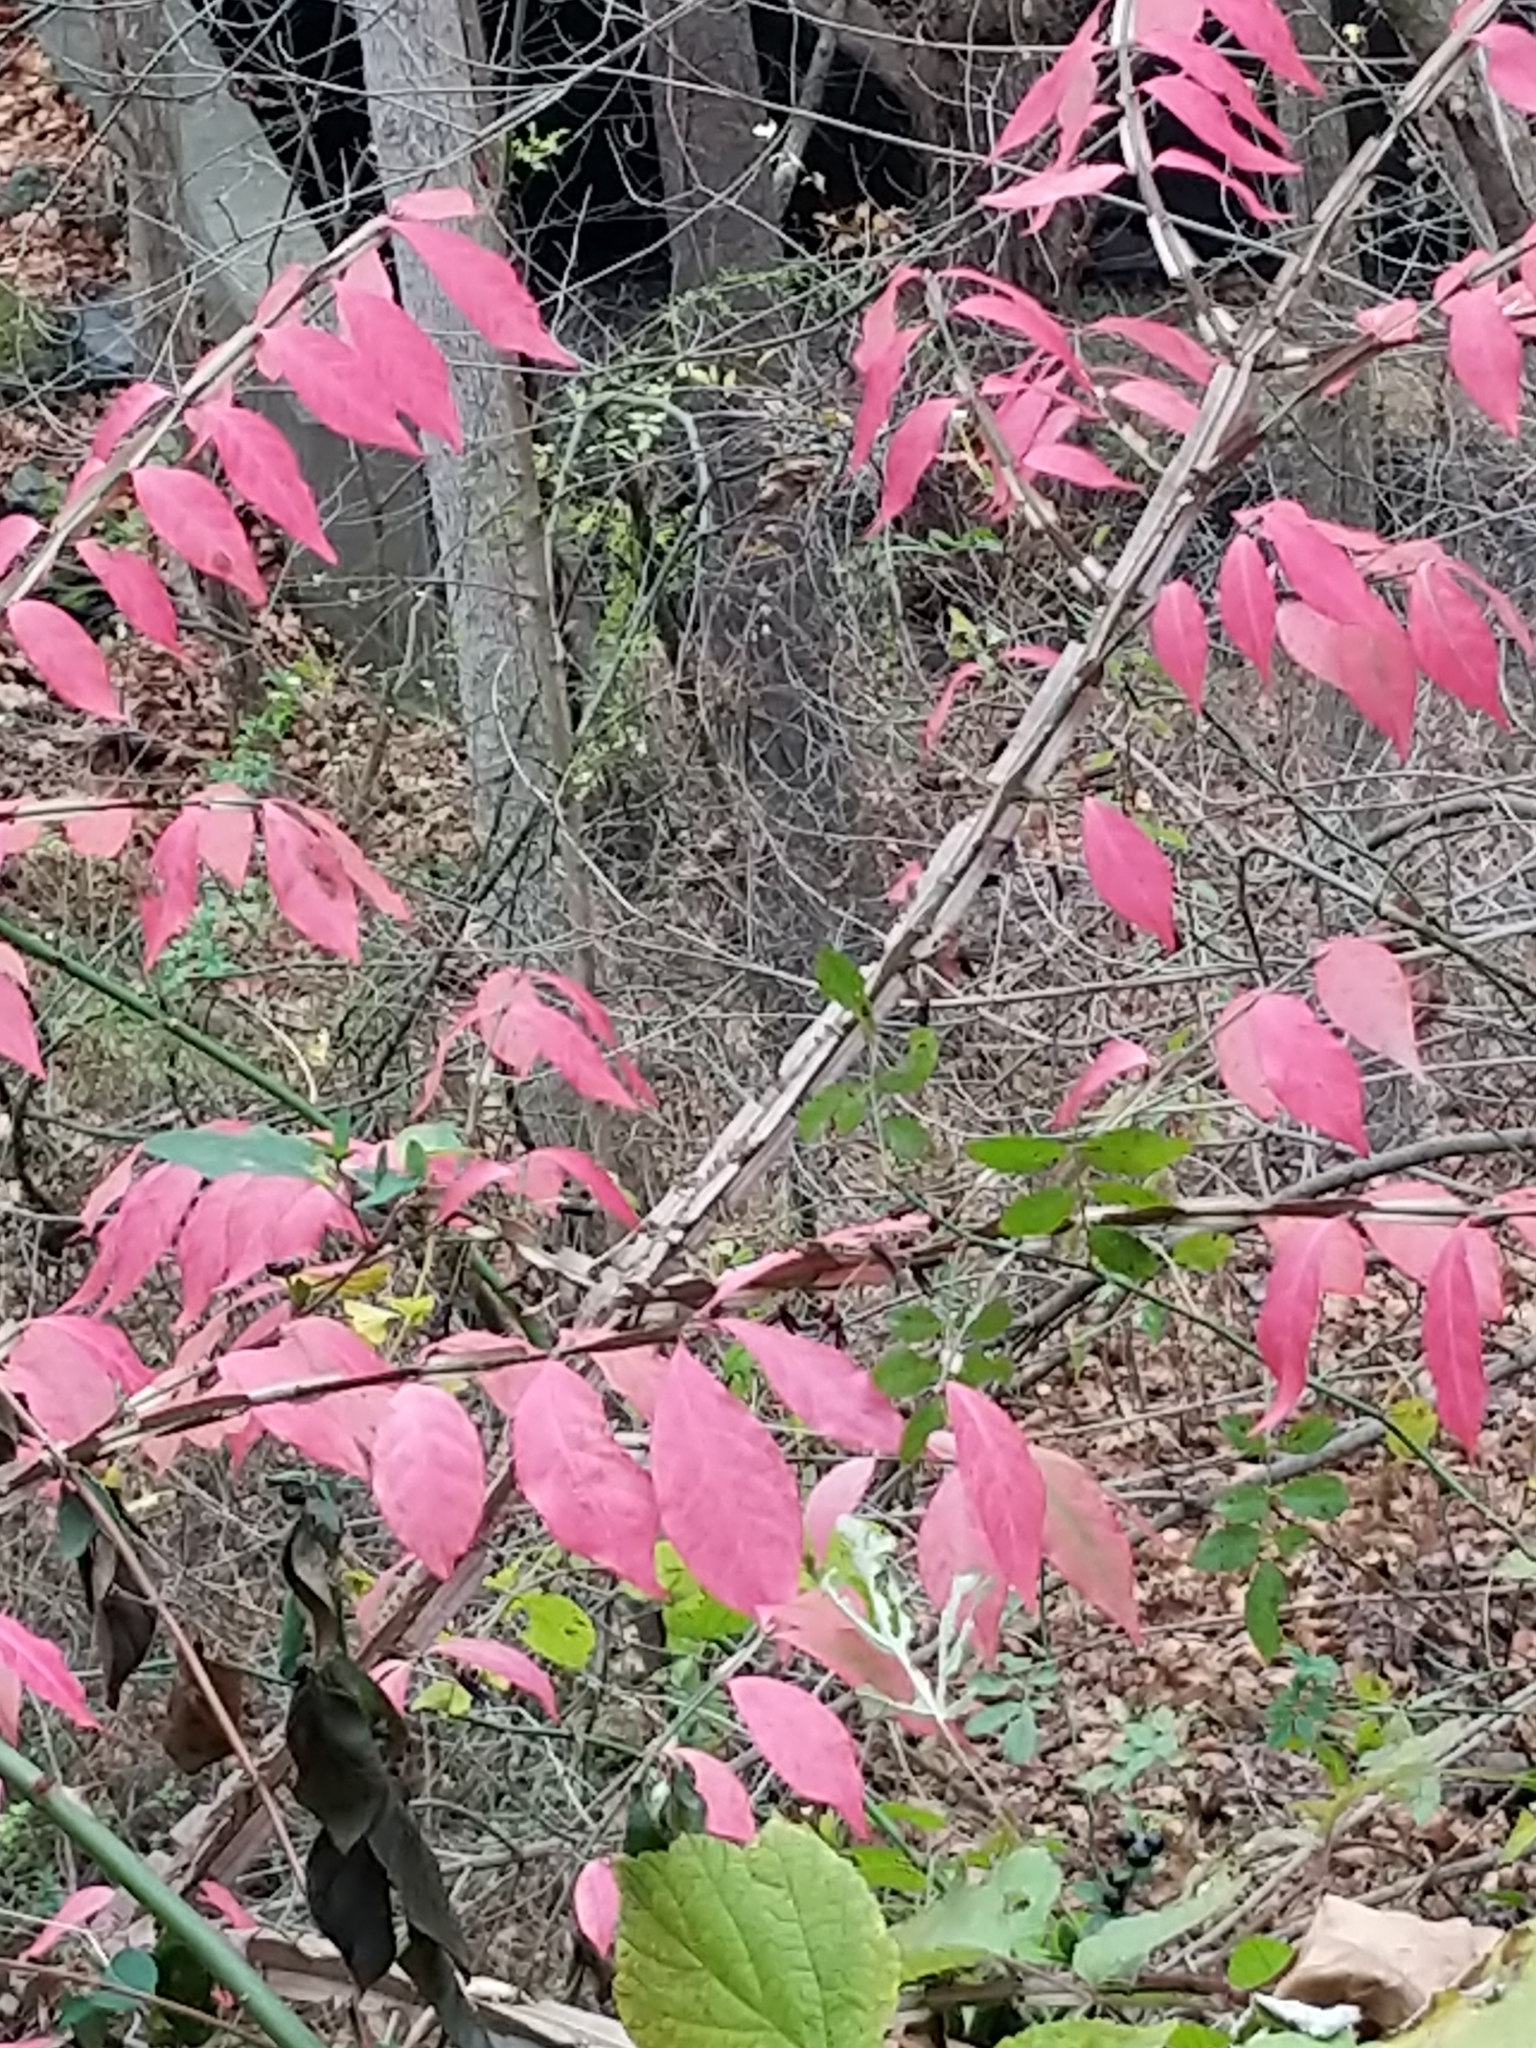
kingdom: Plantae
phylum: Tracheophyta
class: Magnoliopsida
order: Celastrales
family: Celastraceae
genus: Euonymus
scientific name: Euonymus alatus
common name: Winged euonymus
